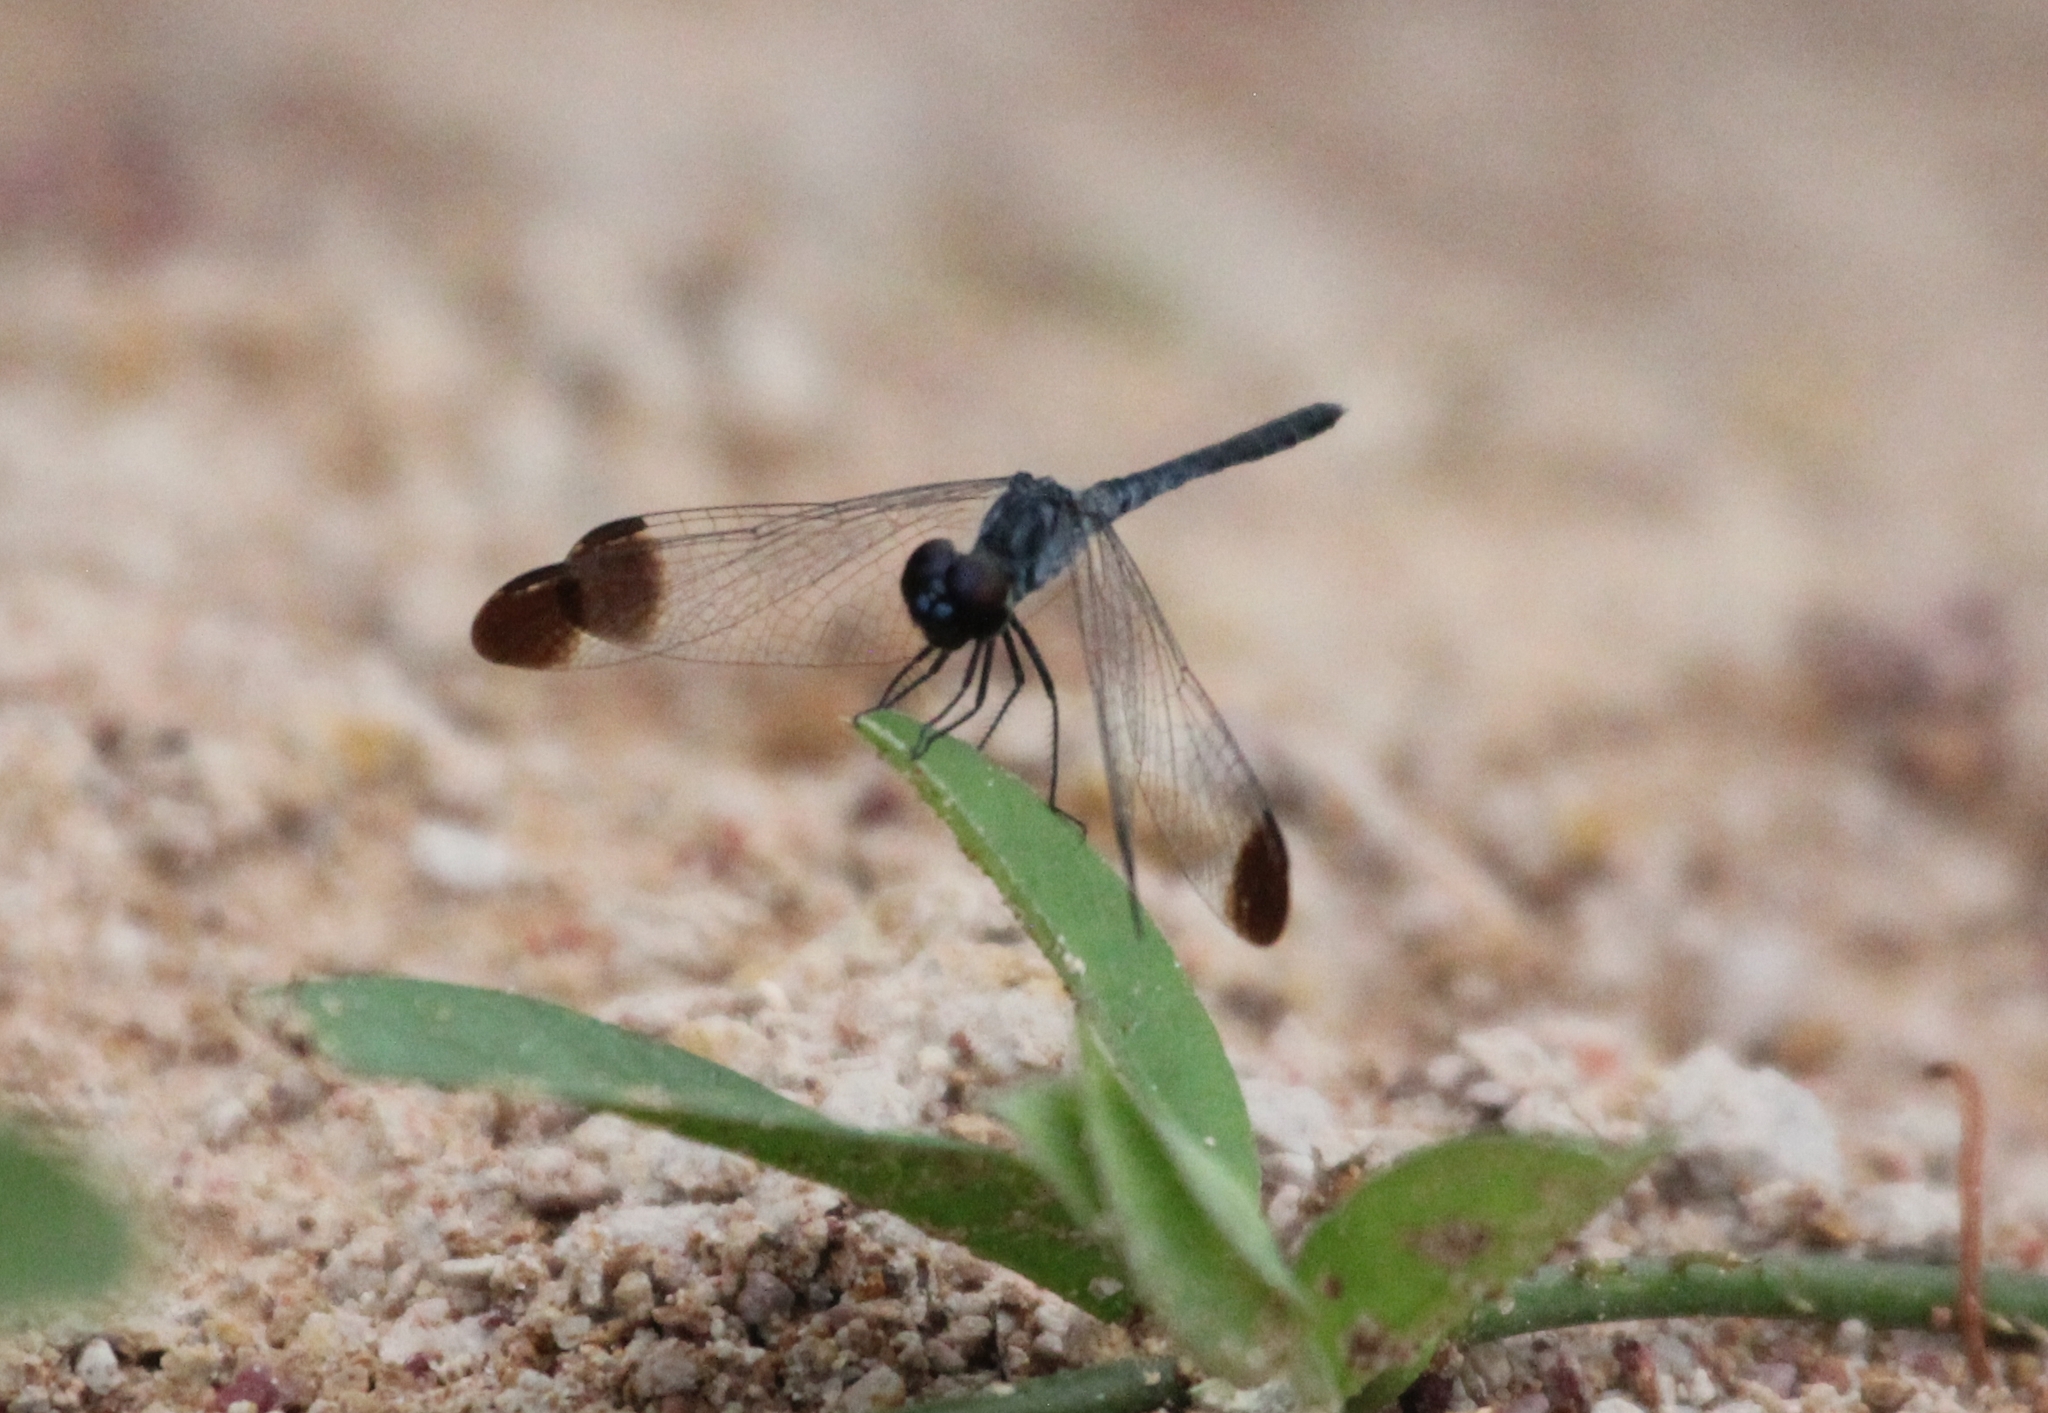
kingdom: Animalia
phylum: Arthropoda
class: Insecta
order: Odonata
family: Libellulidae
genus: Diplacodes
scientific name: Diplacodes nebulosa
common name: Black-tipped percher
